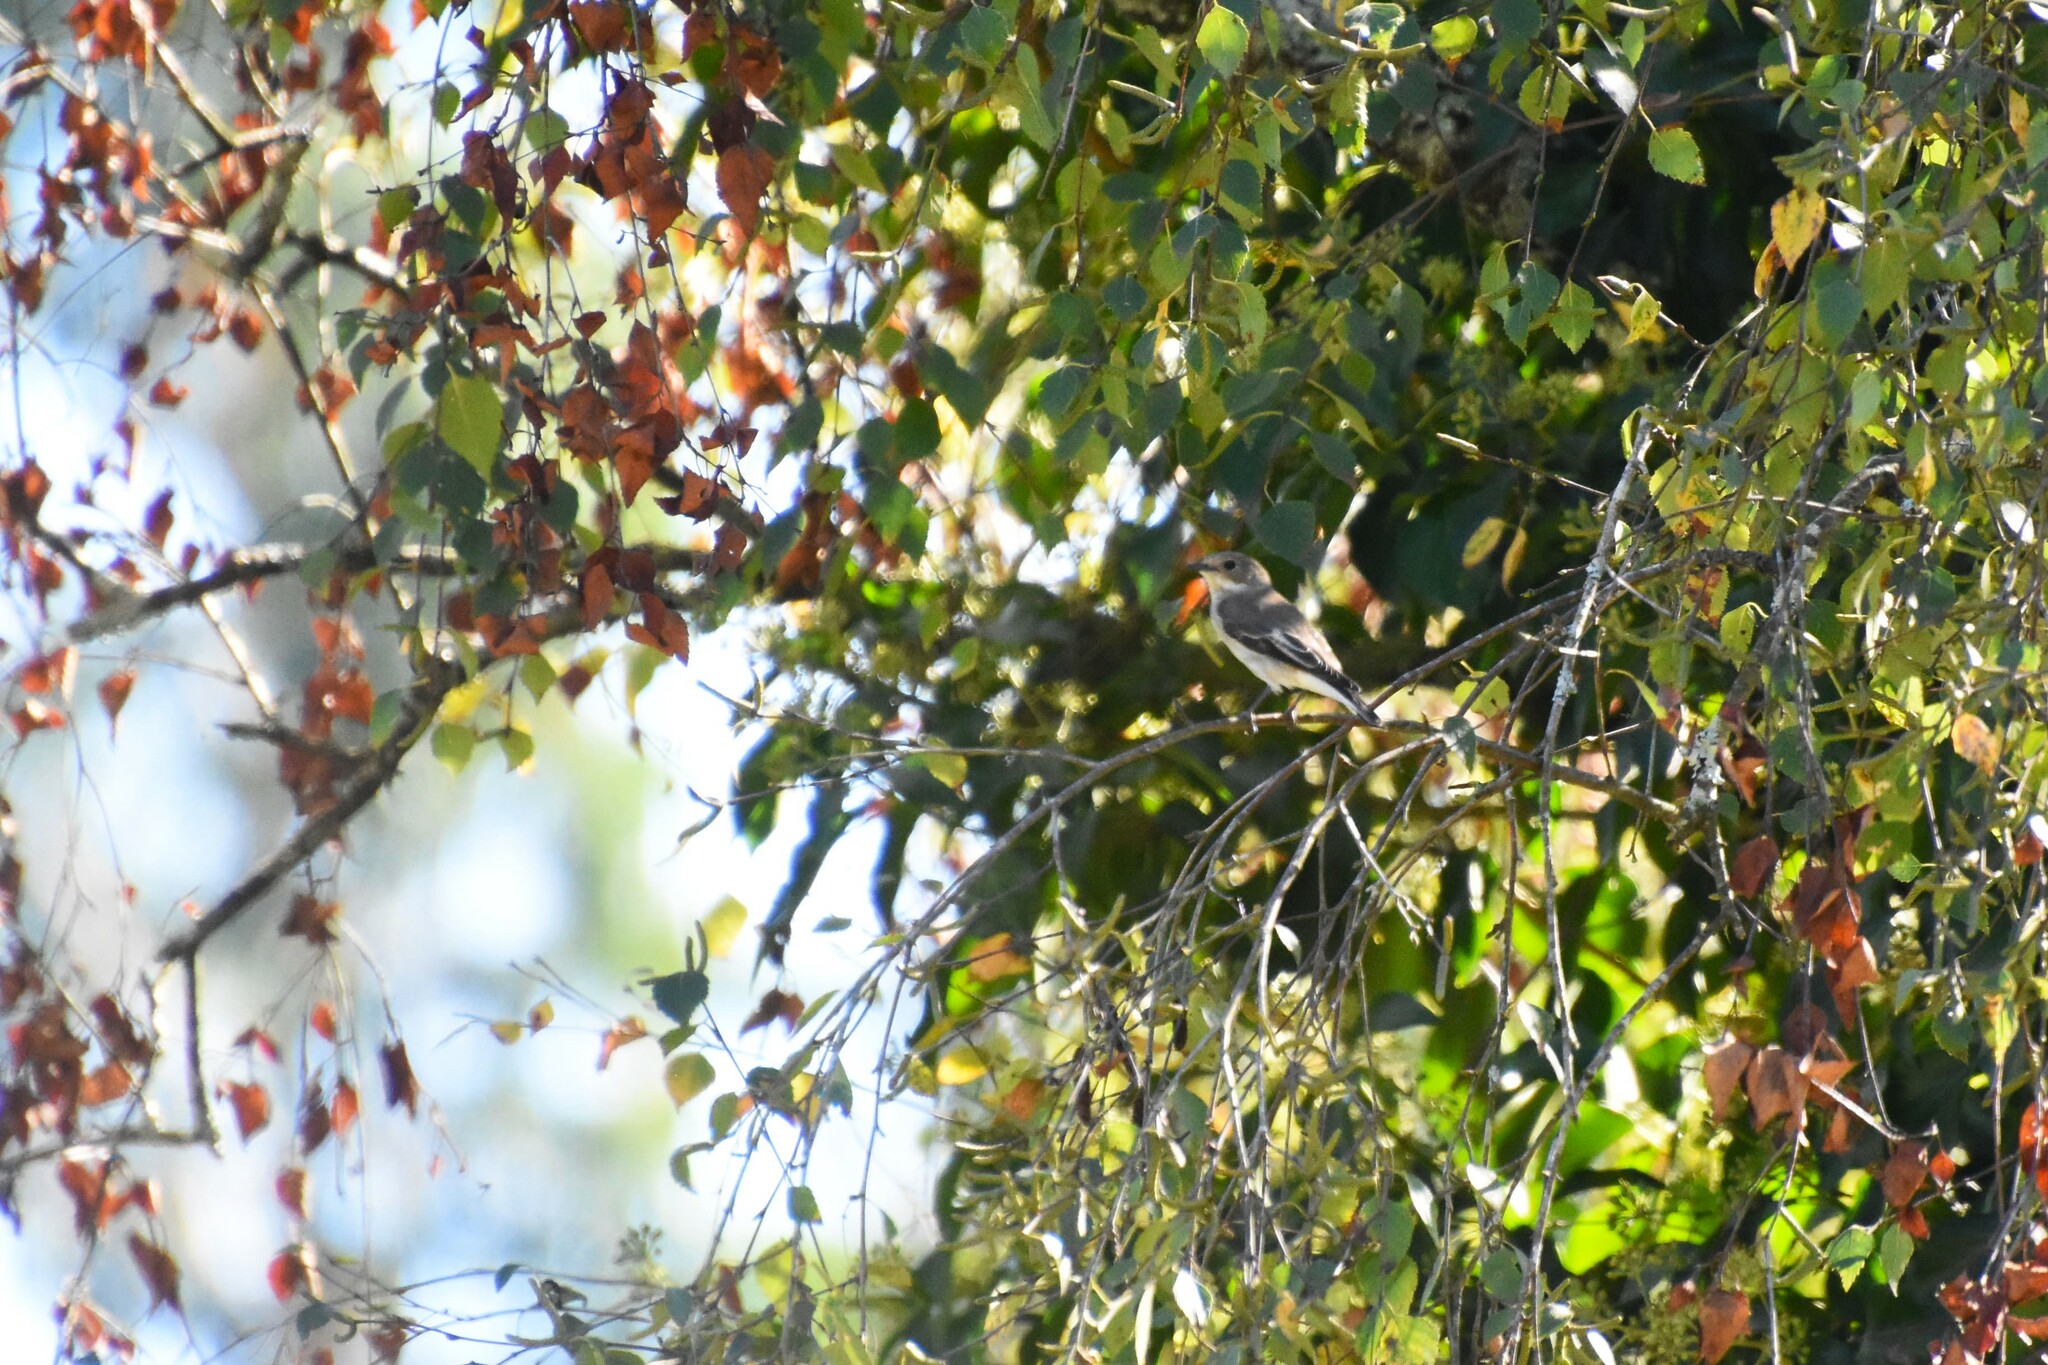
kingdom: Animalia
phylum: Chordata
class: Aves
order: Passeriformes
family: Muscicapidae
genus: Ficedula
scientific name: Ficedula hypoleuca
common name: European pied flycatcher
